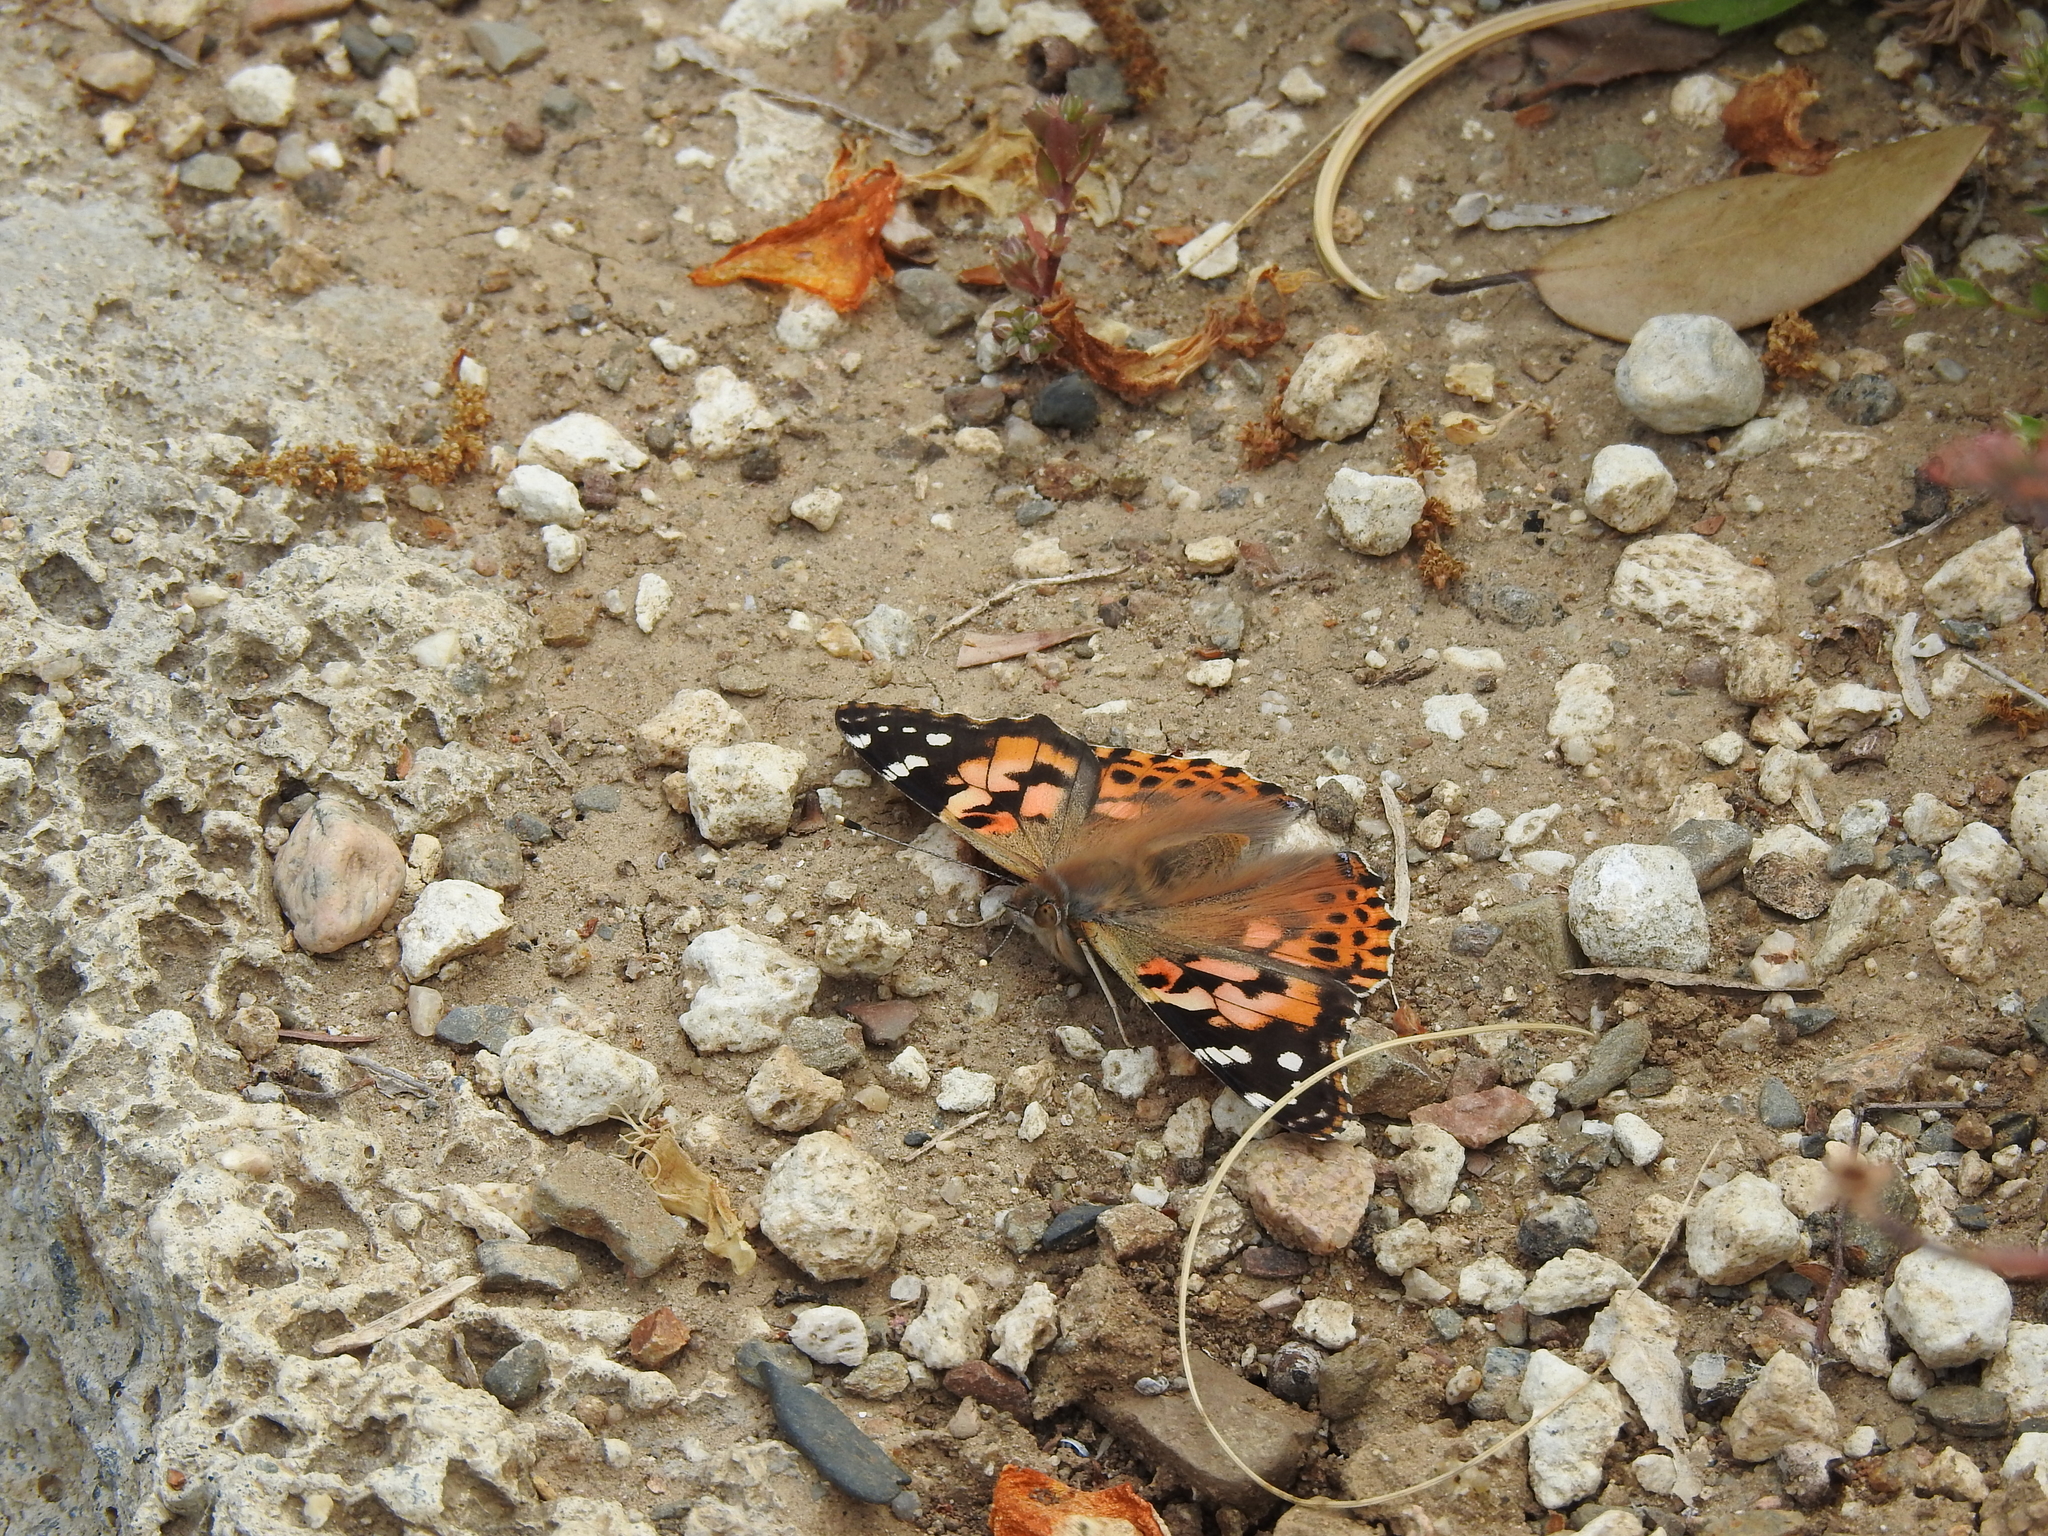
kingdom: Animalia
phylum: Arthropoda
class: Insecta
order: Lepidoptera
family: Nymphalidae
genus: Vanessa
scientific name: Vanessa cardui
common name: Painted lady
